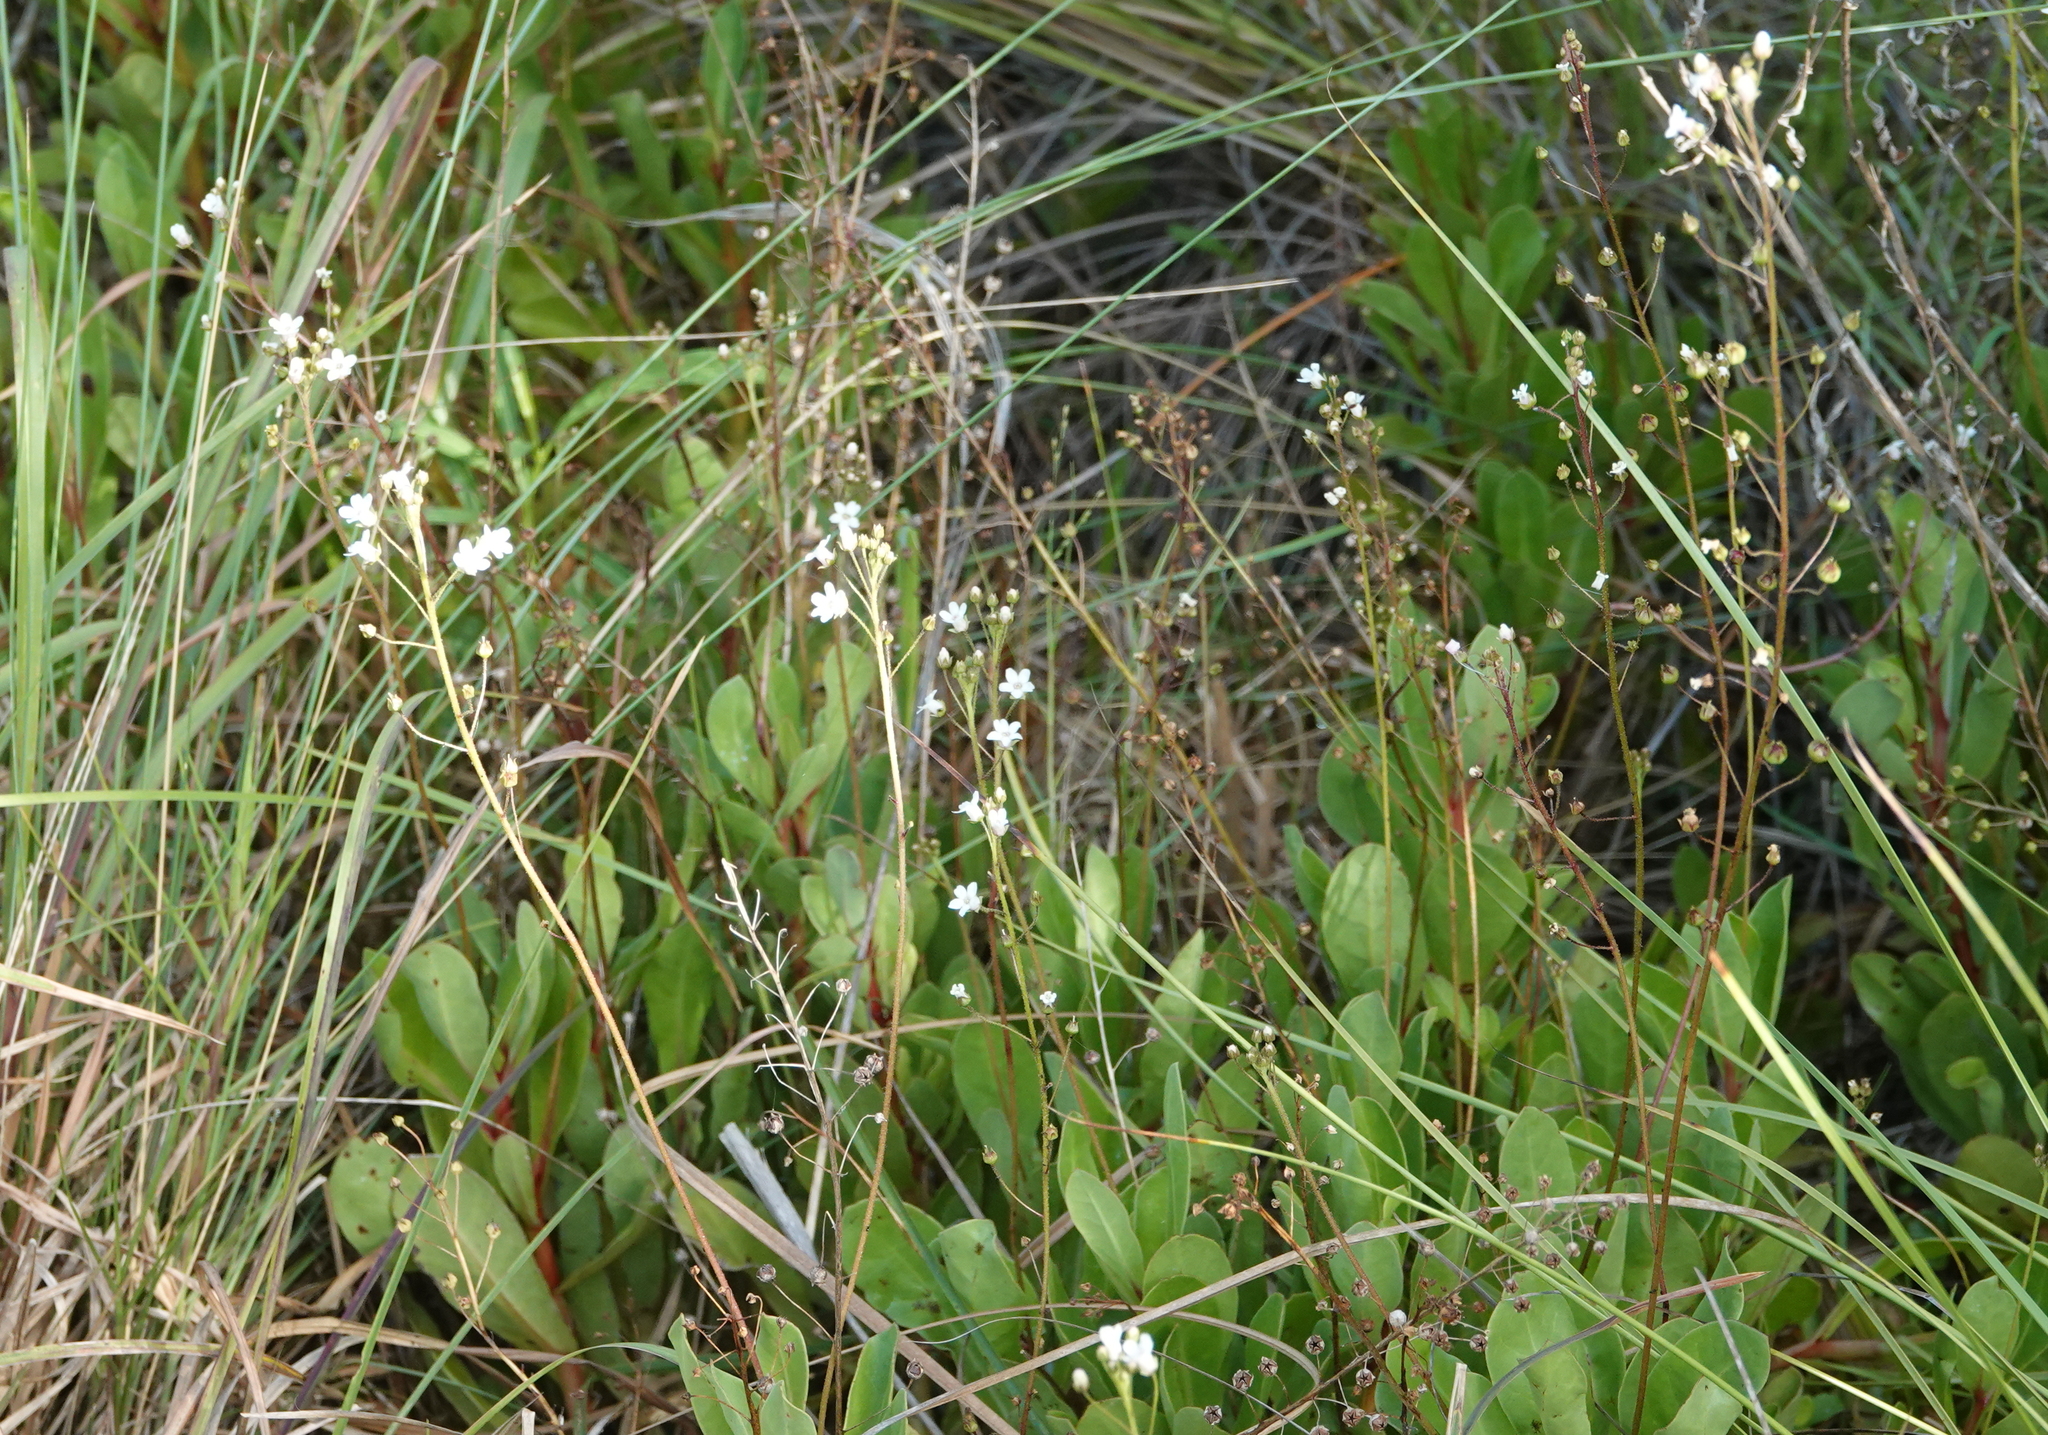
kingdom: Plantae
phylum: Tracheophyta
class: Magnoliopsida
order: Ericales
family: Primulaceae
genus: Samolus
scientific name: Samolus ebracteatus
